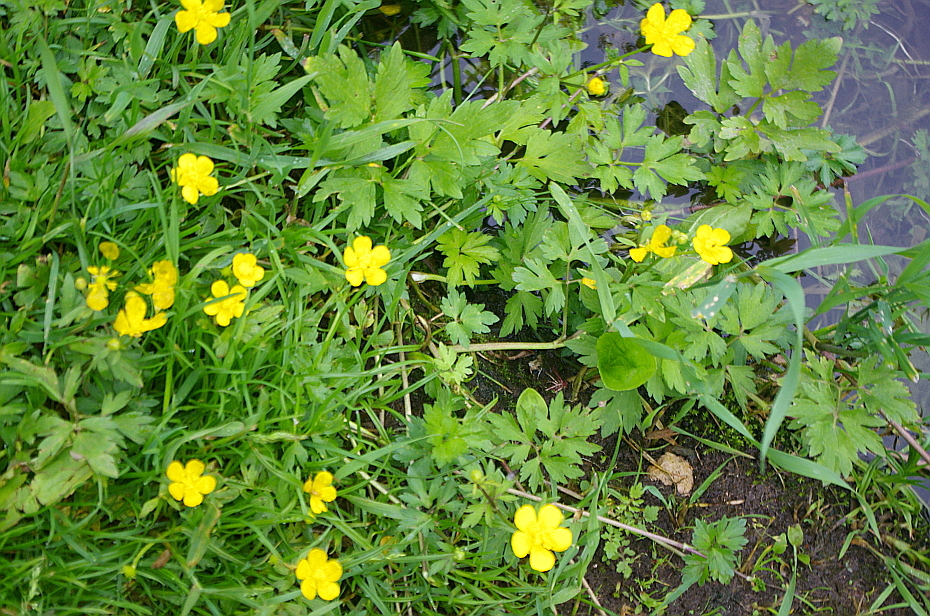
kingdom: Plantae
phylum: Tracheophyta
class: Magnoliopsida
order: Ranunculales
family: Ranunculaceae
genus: Ranunculus
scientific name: Ranunculus repens
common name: Creeping buttercup
